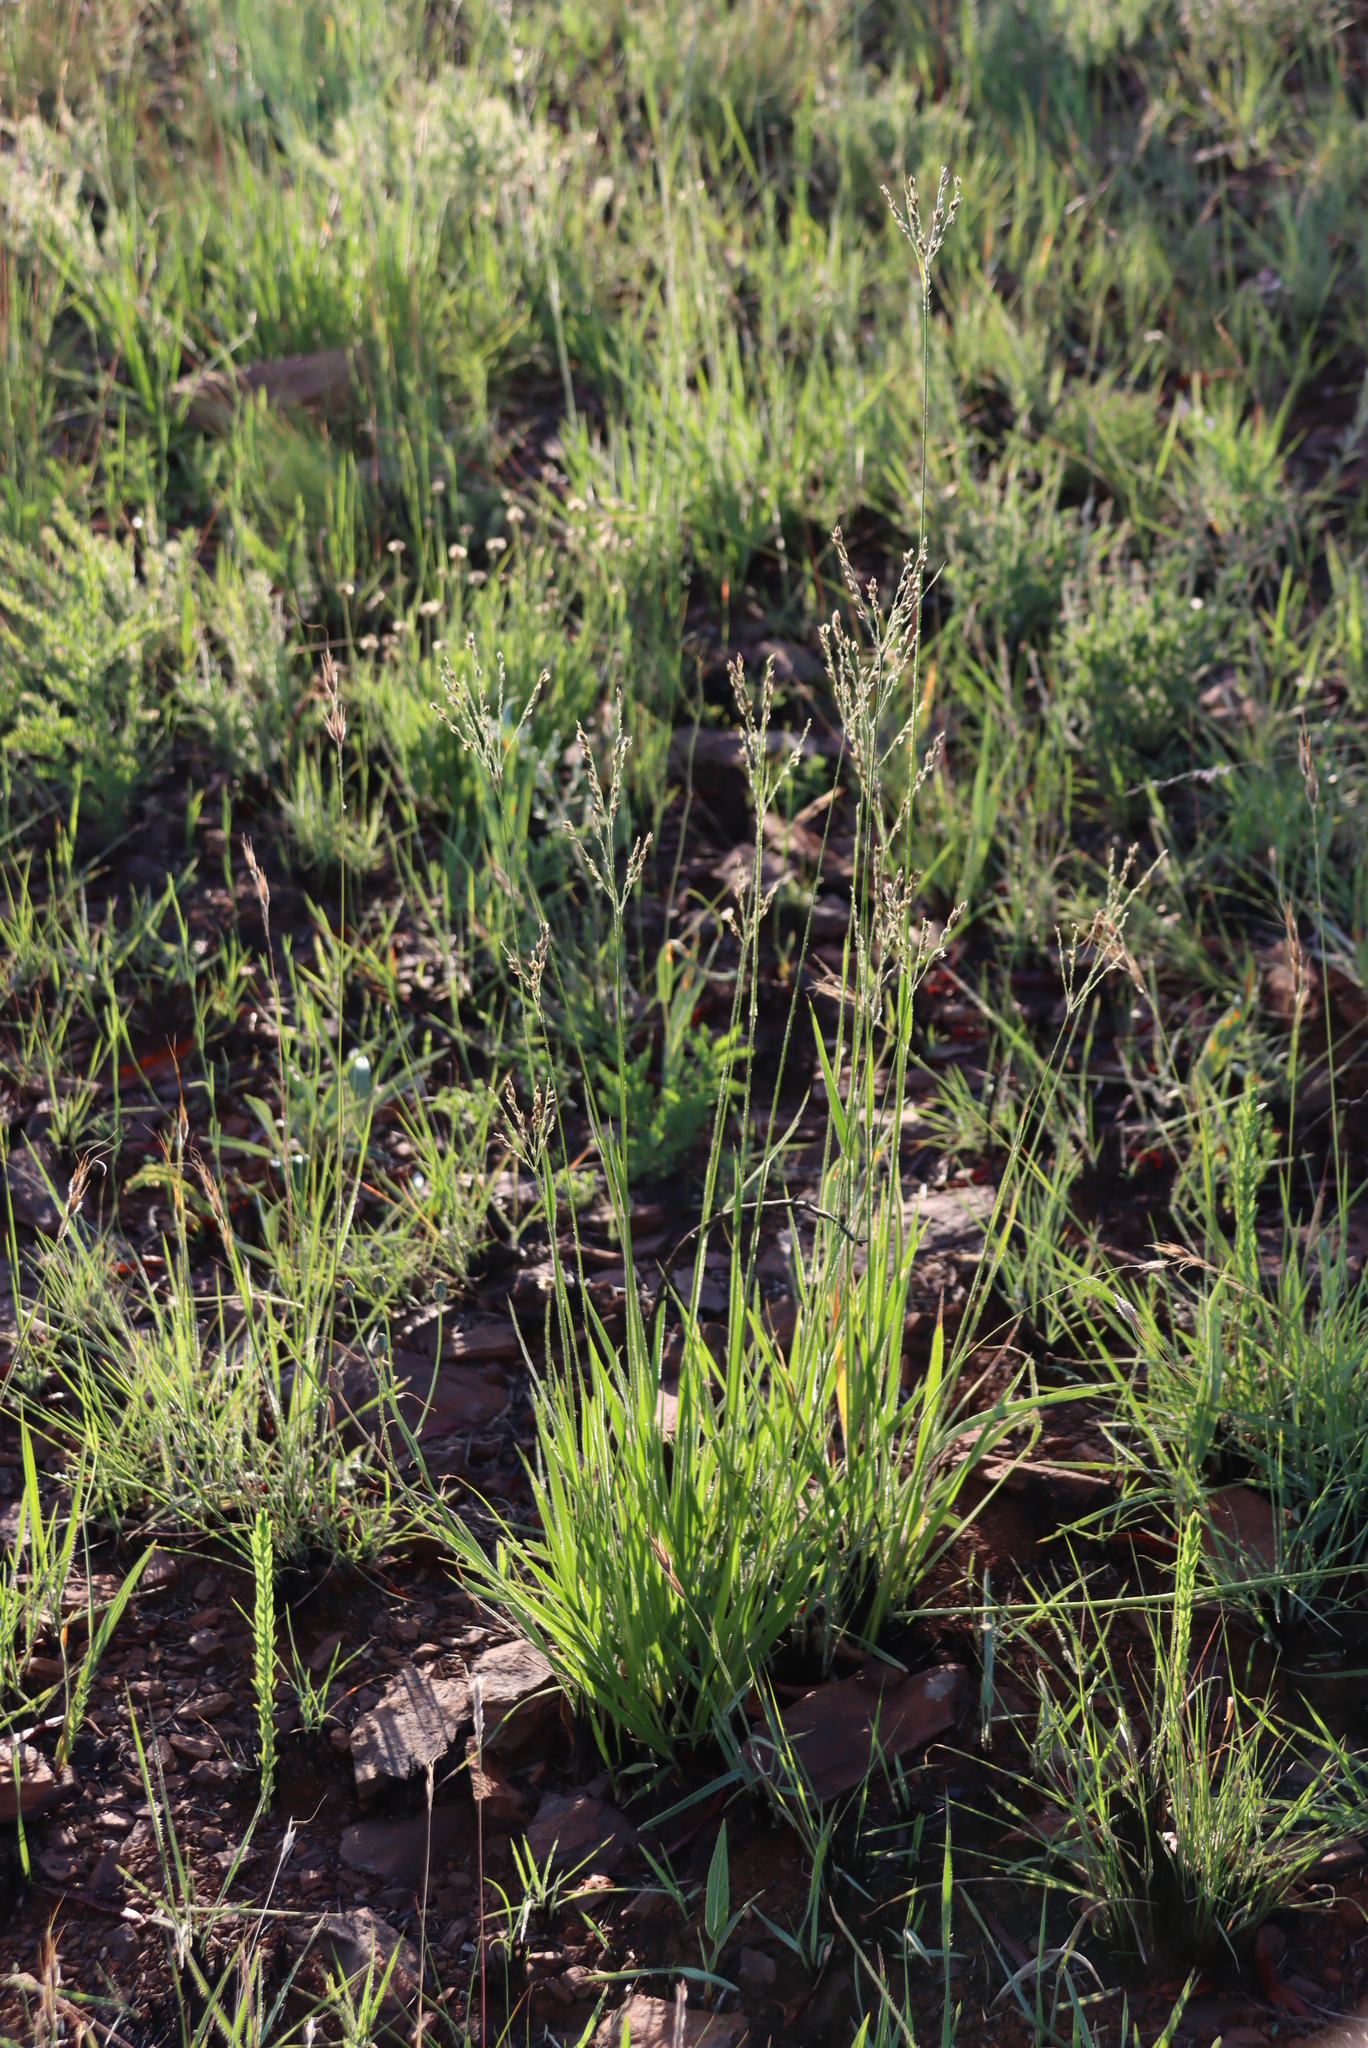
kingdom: Plantae
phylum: Tracheophyta
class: Liliopsida
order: Poales
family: Poaceae
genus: Alloteropsis
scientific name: Alloteropsis semialata
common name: Cockatoo grass
